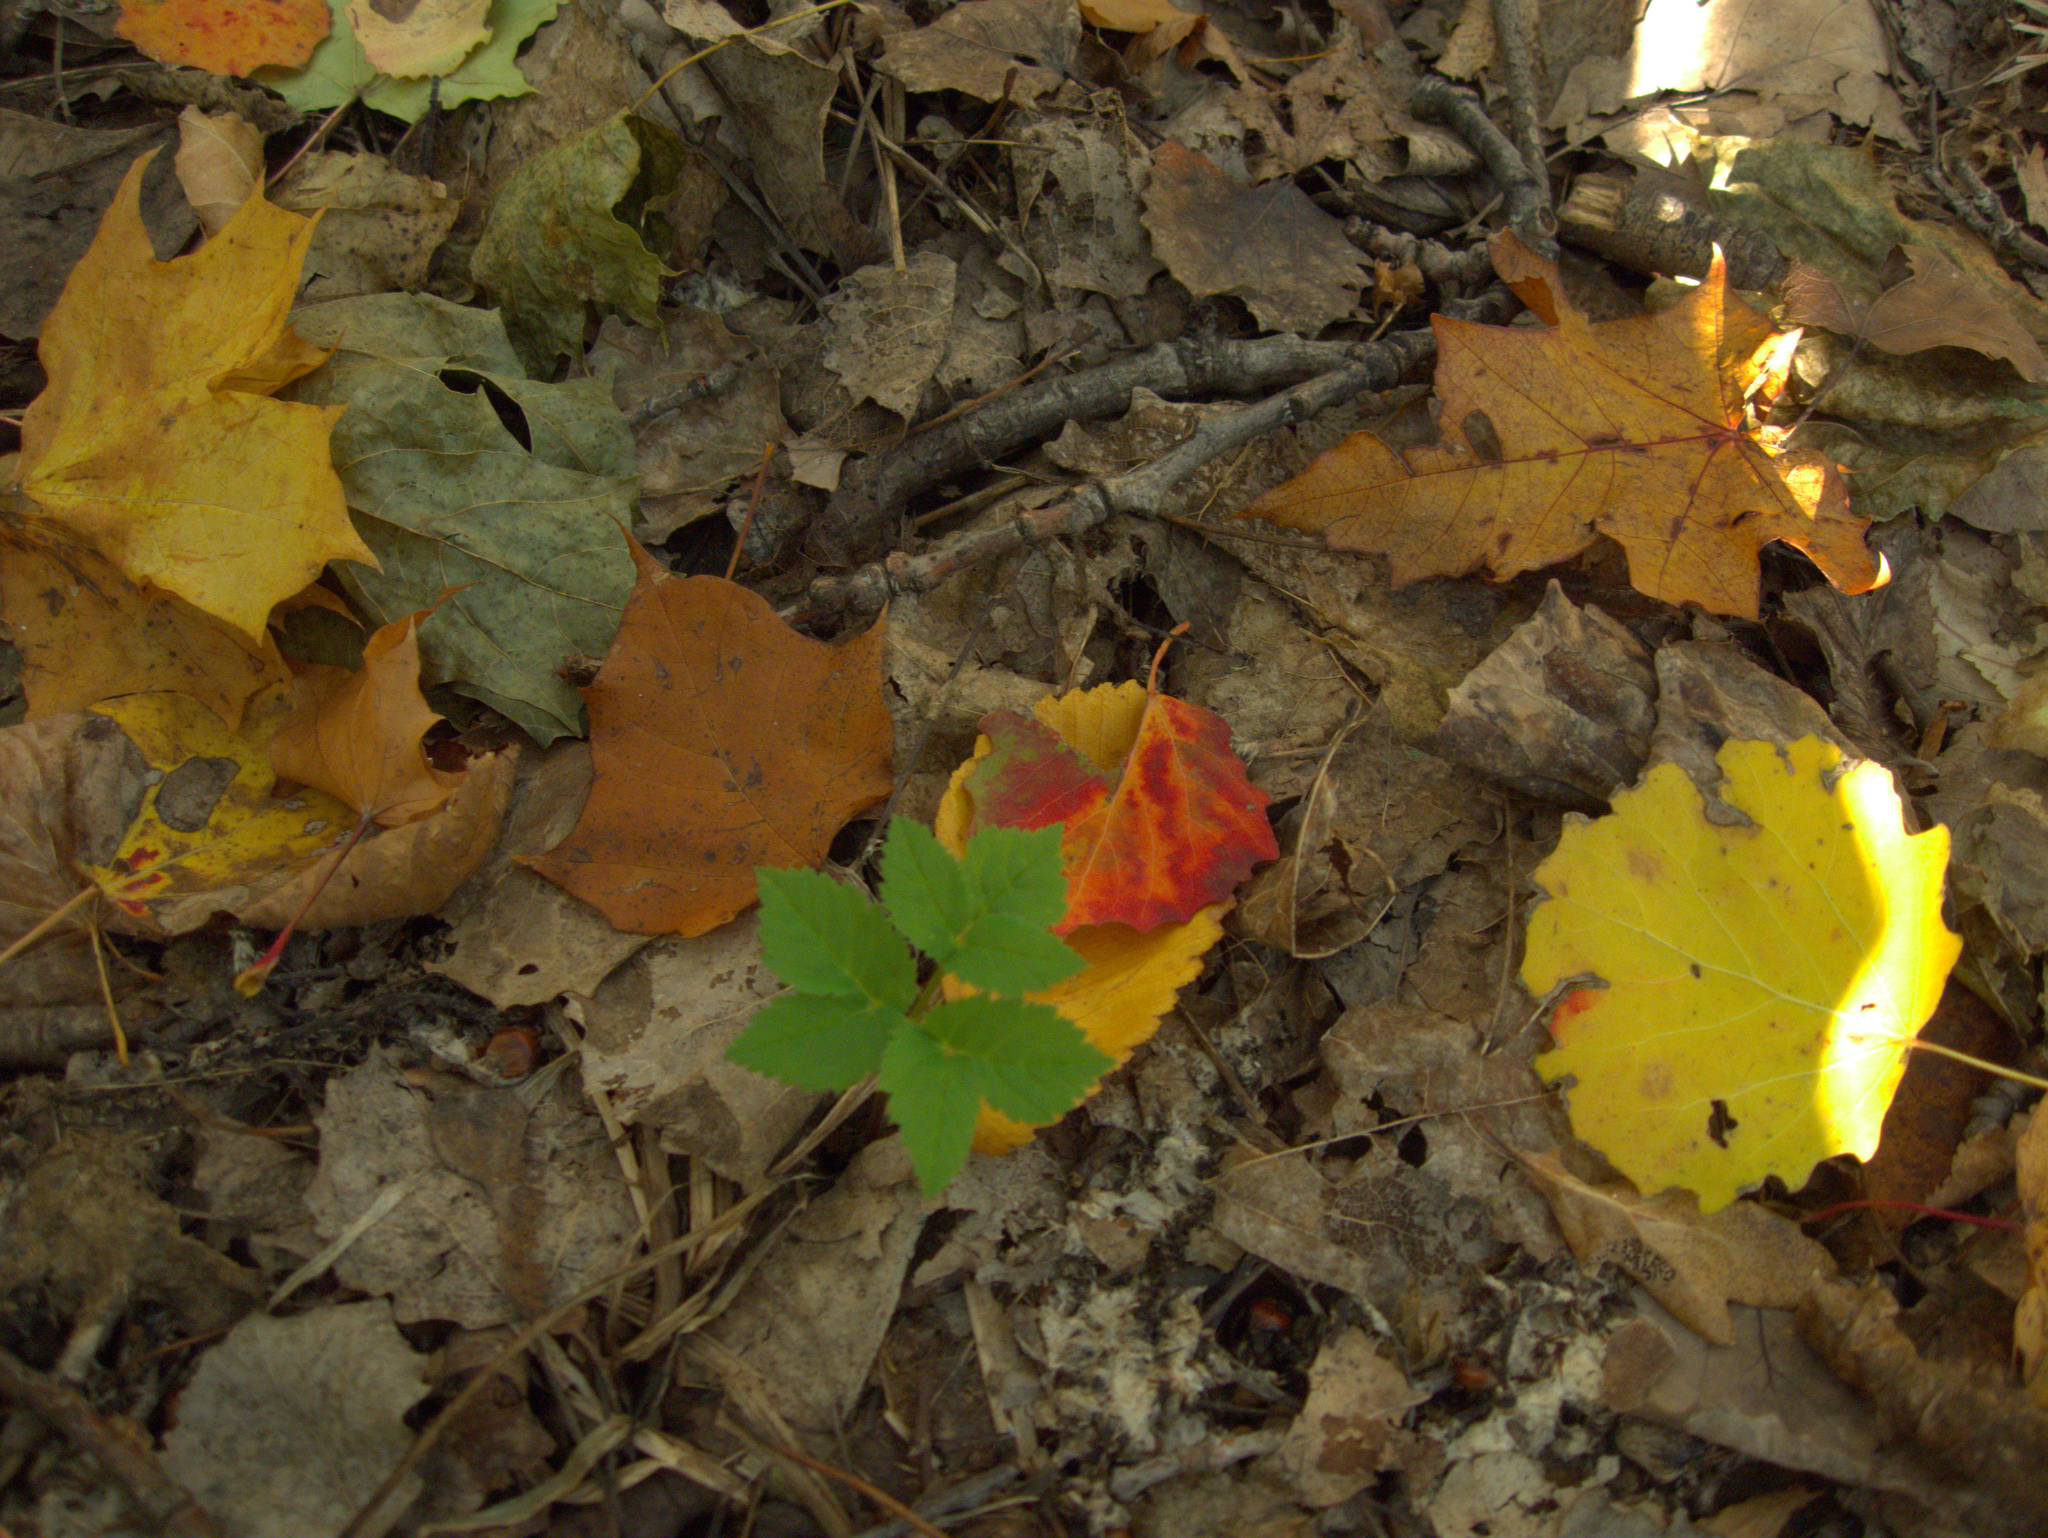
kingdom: Plantae
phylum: Tracheophyta
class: Magnoliopsida
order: Apiales
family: Apiaceae
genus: Aegopodium
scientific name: Aegopodium podagraria
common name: Ground-elder
